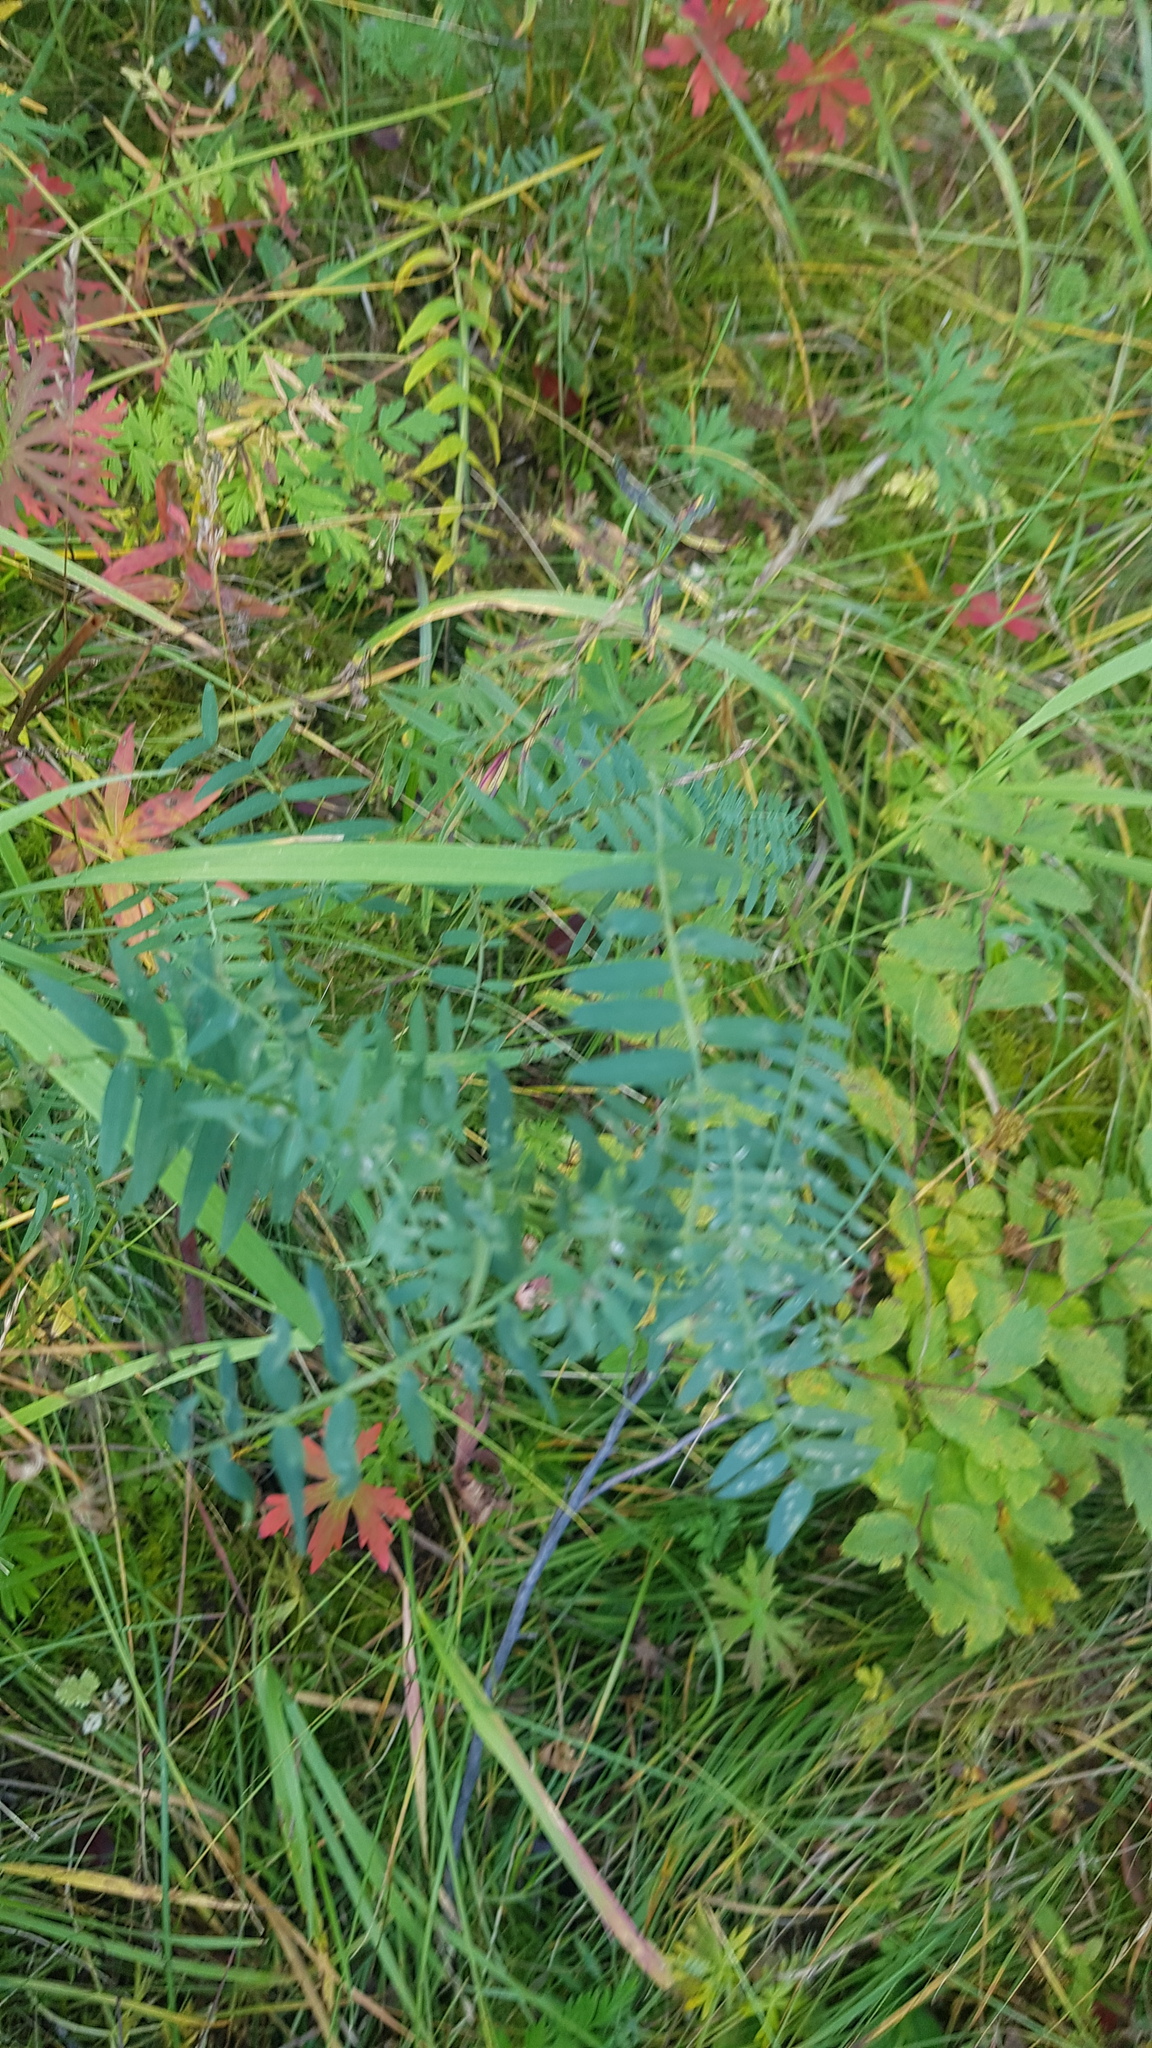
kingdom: Plantae
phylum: Tracheophyta
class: Magnoliopsida
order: Fabales
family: Fabaceae
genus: Vicia
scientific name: Vicia cracca
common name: Bird vetch
